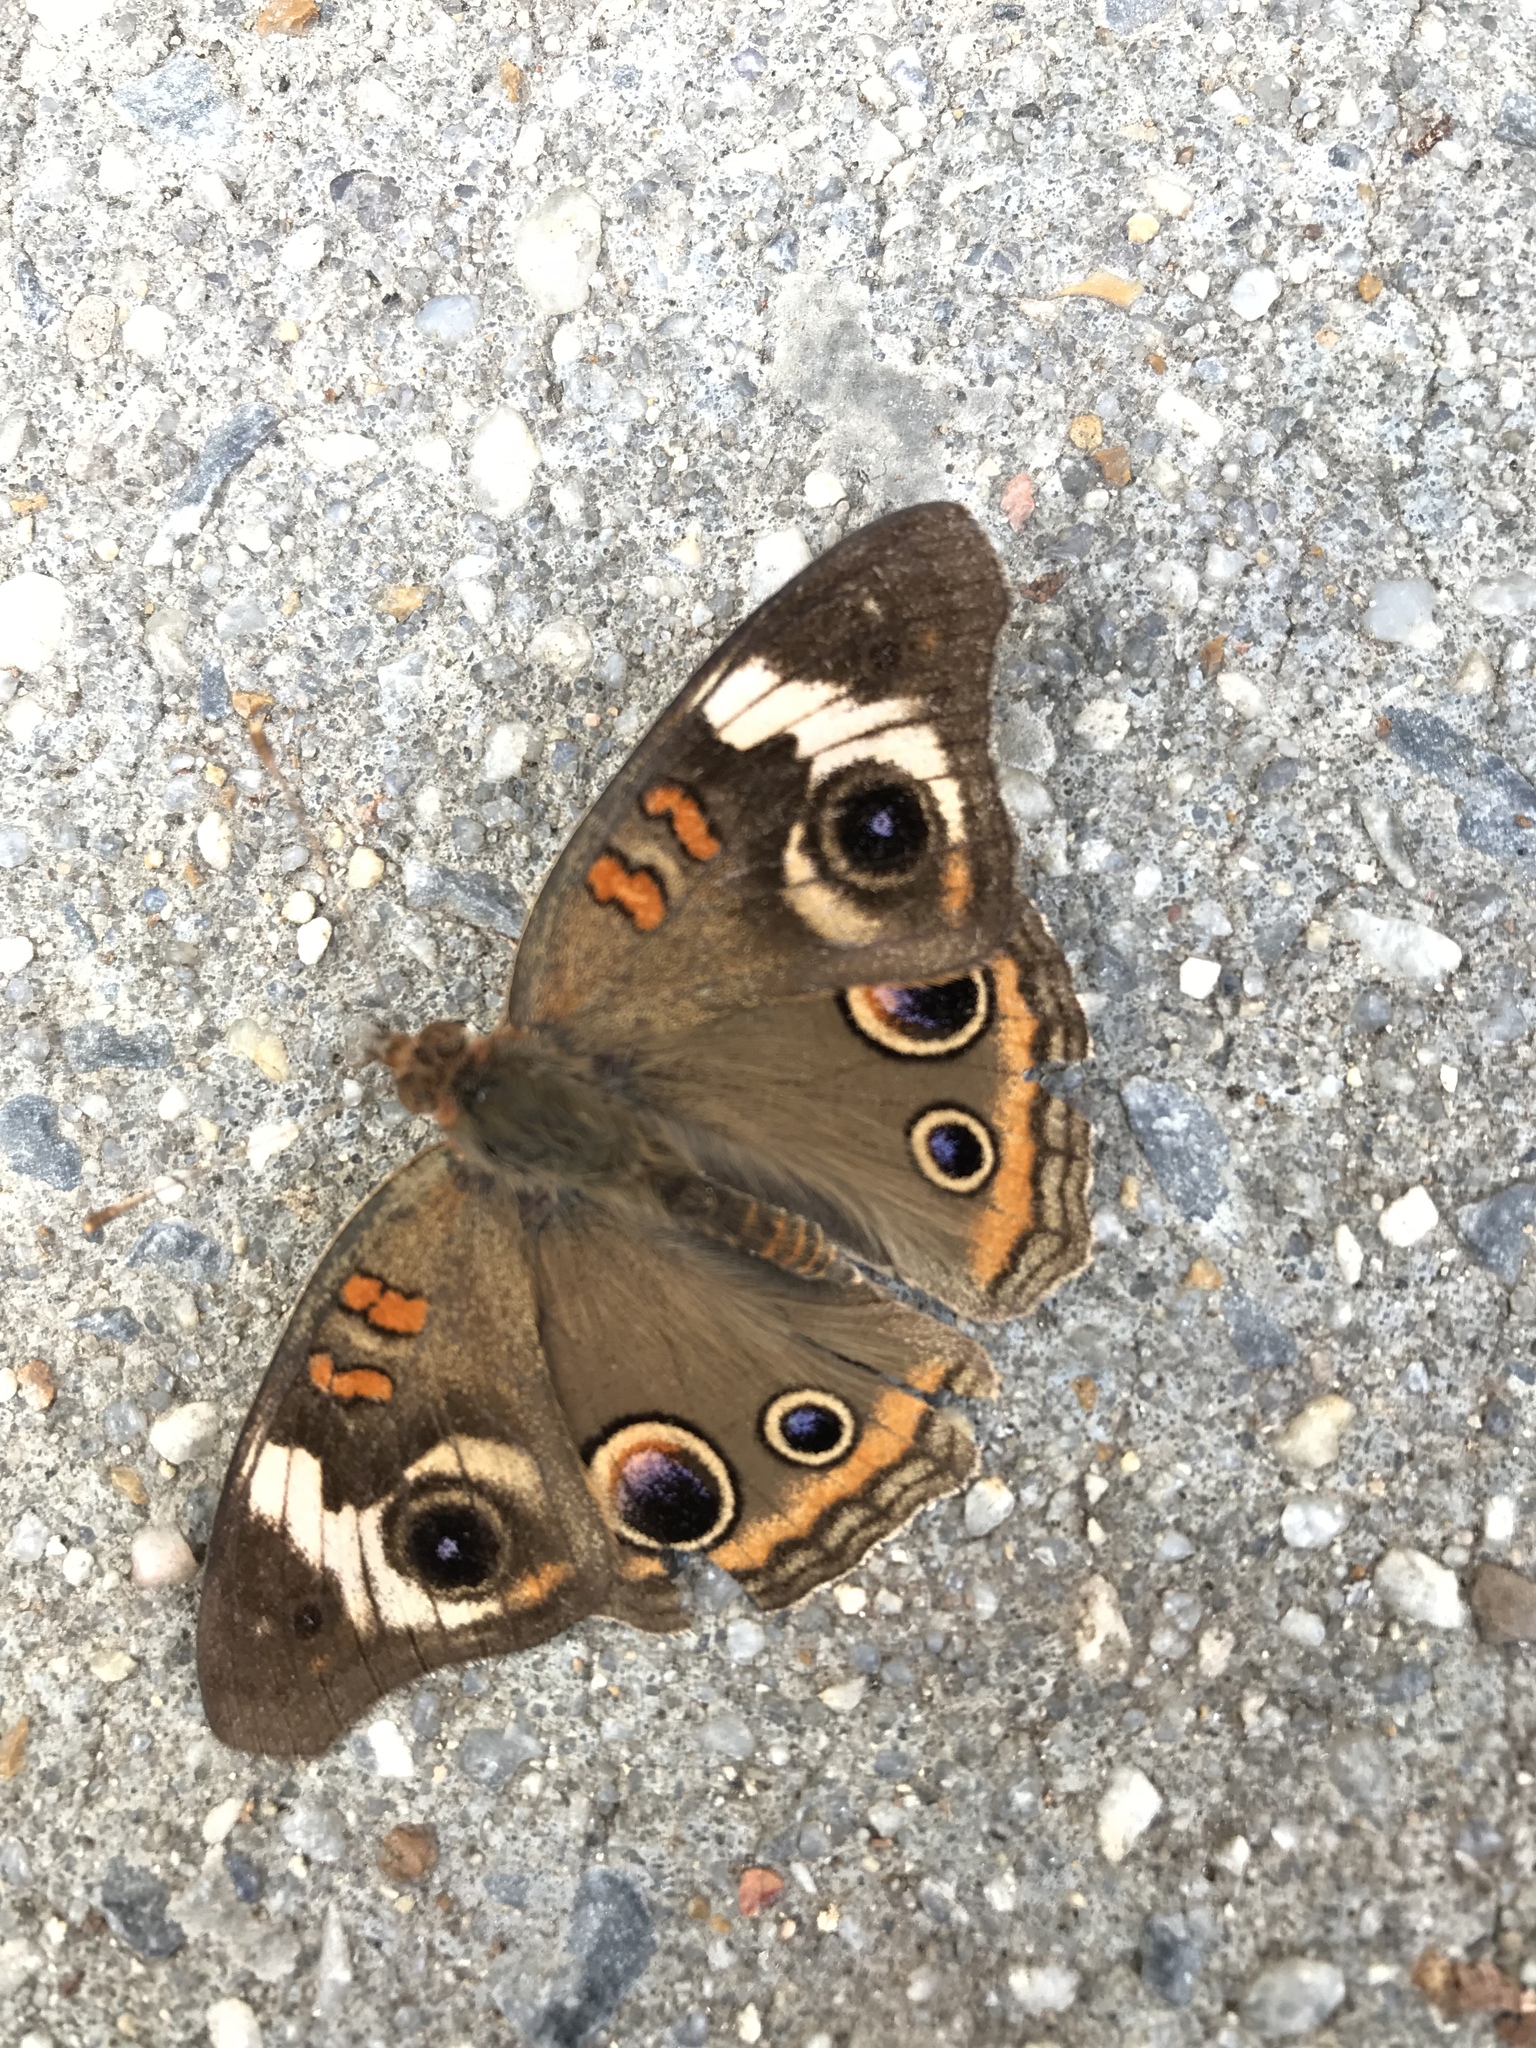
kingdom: Animalia
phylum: Arthropoda
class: Insecta
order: Lepidoptera
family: Nymphalidae
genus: Junonia
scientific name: Junonia coenia
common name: Common buckeye
